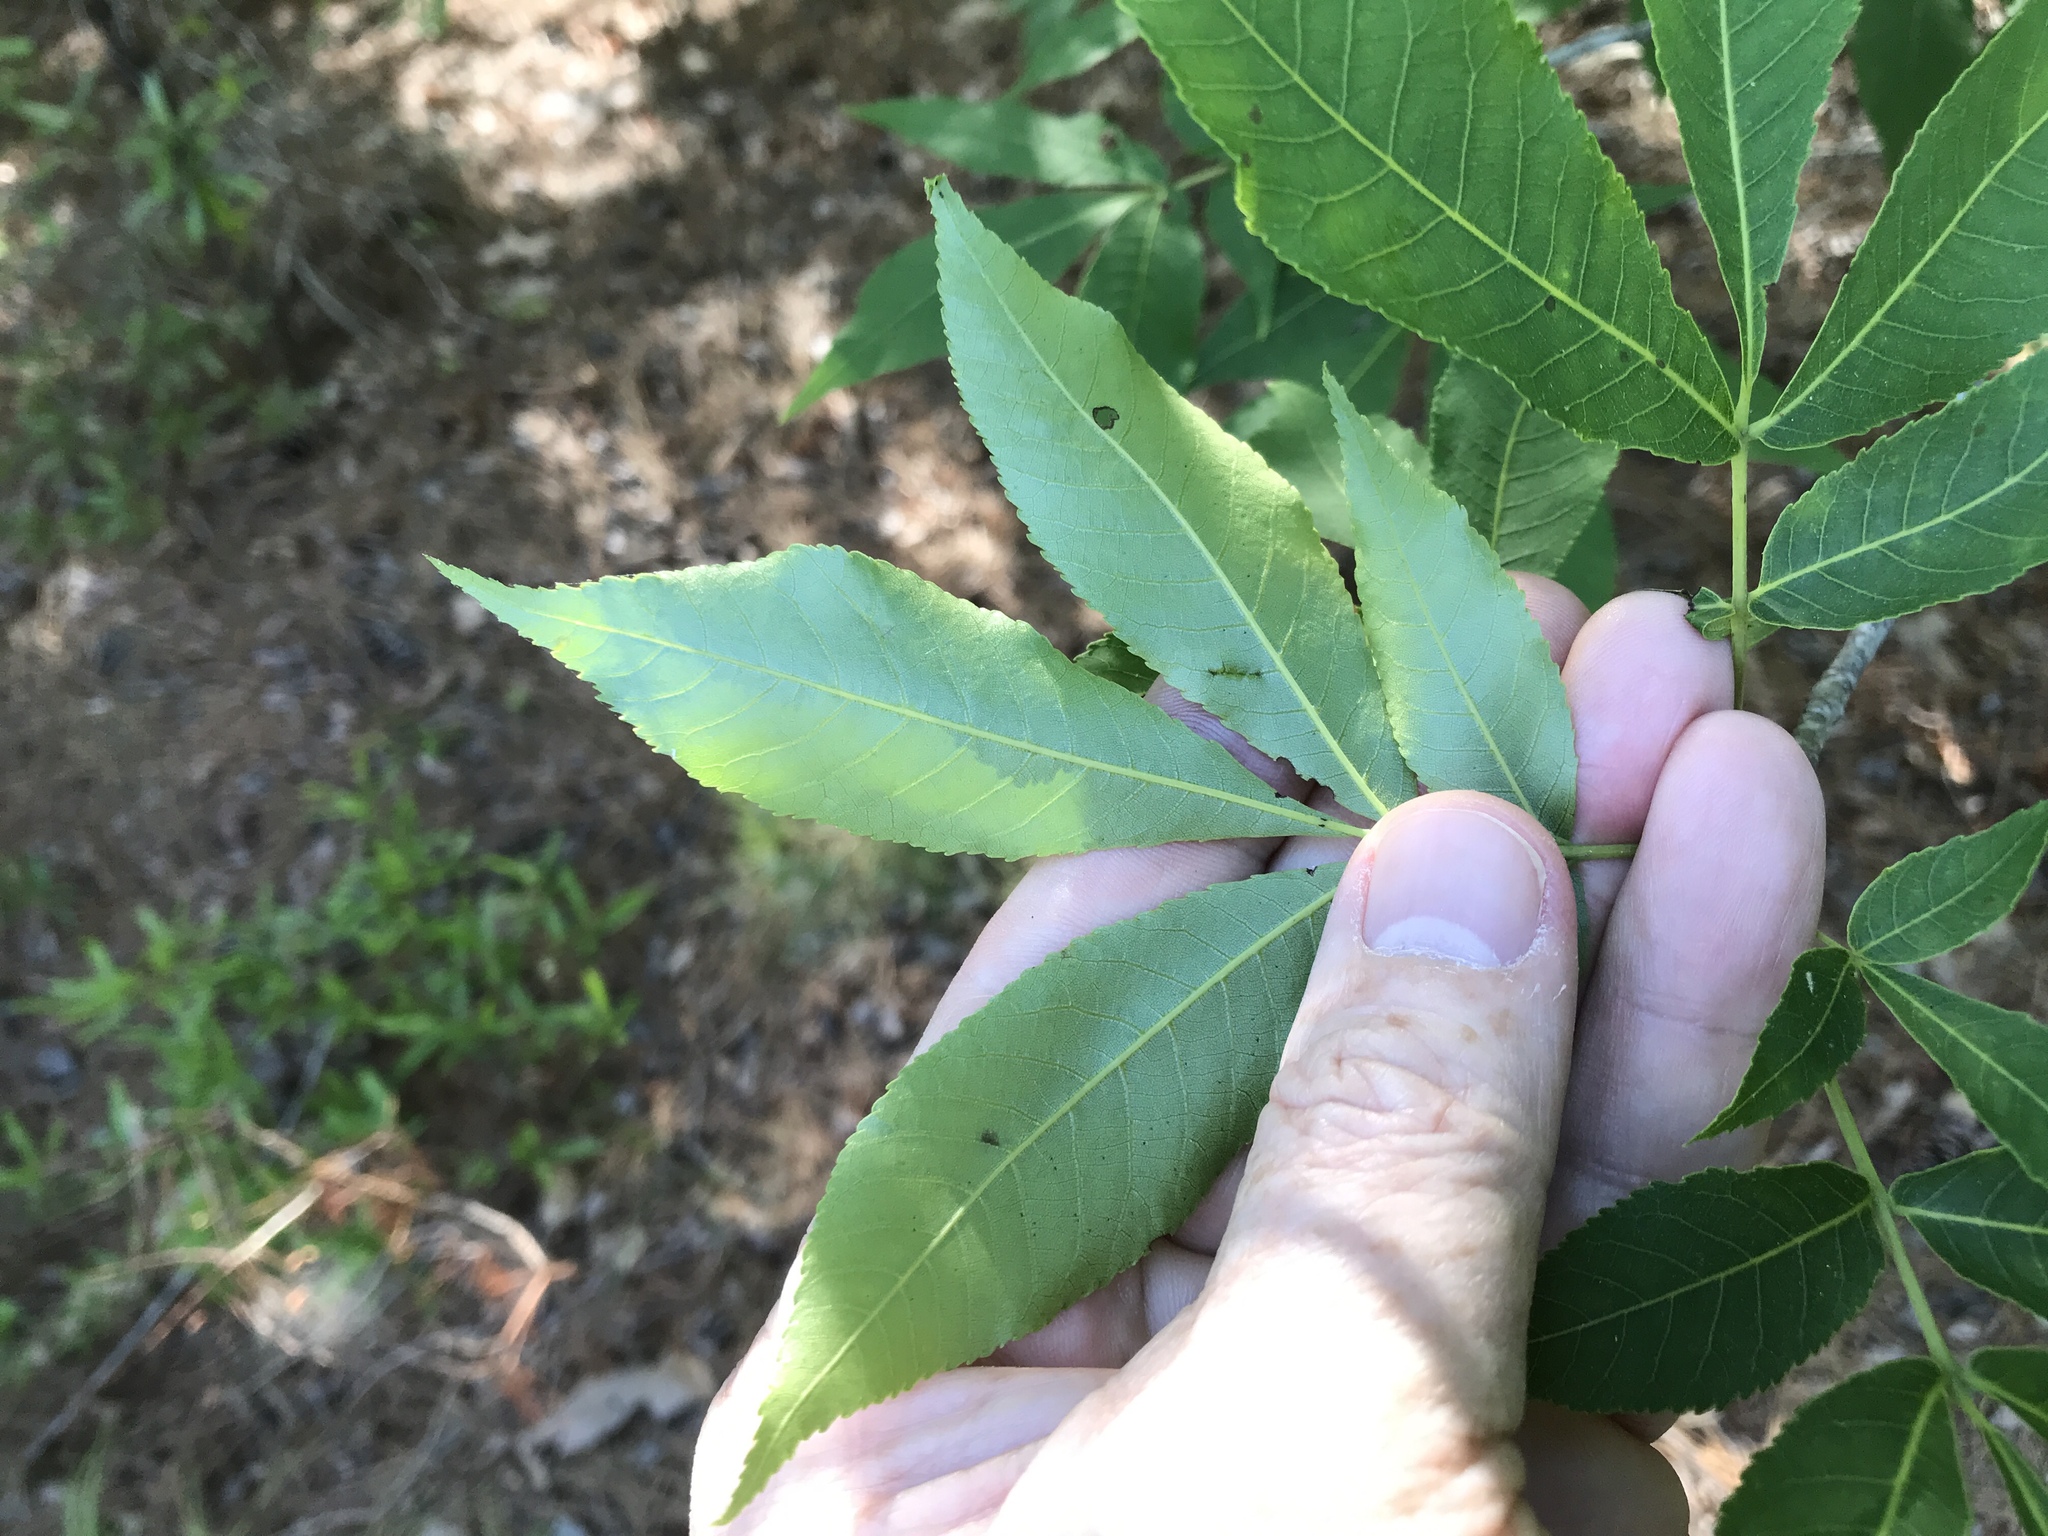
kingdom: Plantae
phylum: Tracheophyta
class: Magnoliopsida
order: Fagales
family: Juglandaceae
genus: Carya
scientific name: Carya glabra
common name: Pignut hickory
